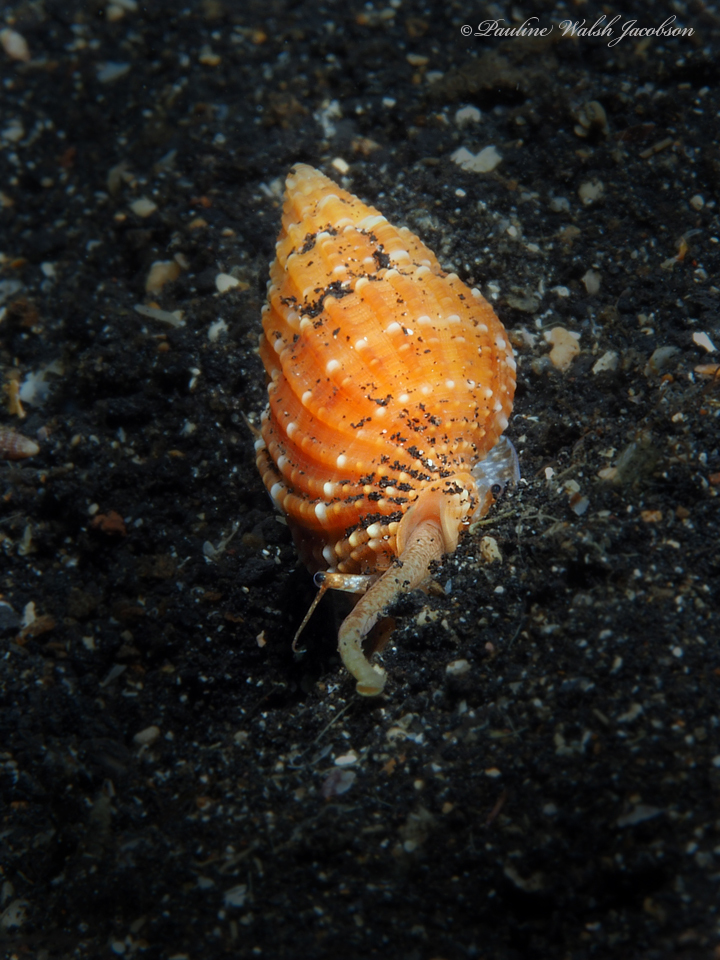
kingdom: Animalia
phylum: Mollusca
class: Gastropoda
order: Neogastropoda
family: Nassariidae
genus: Phos
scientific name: Phos roseatus
